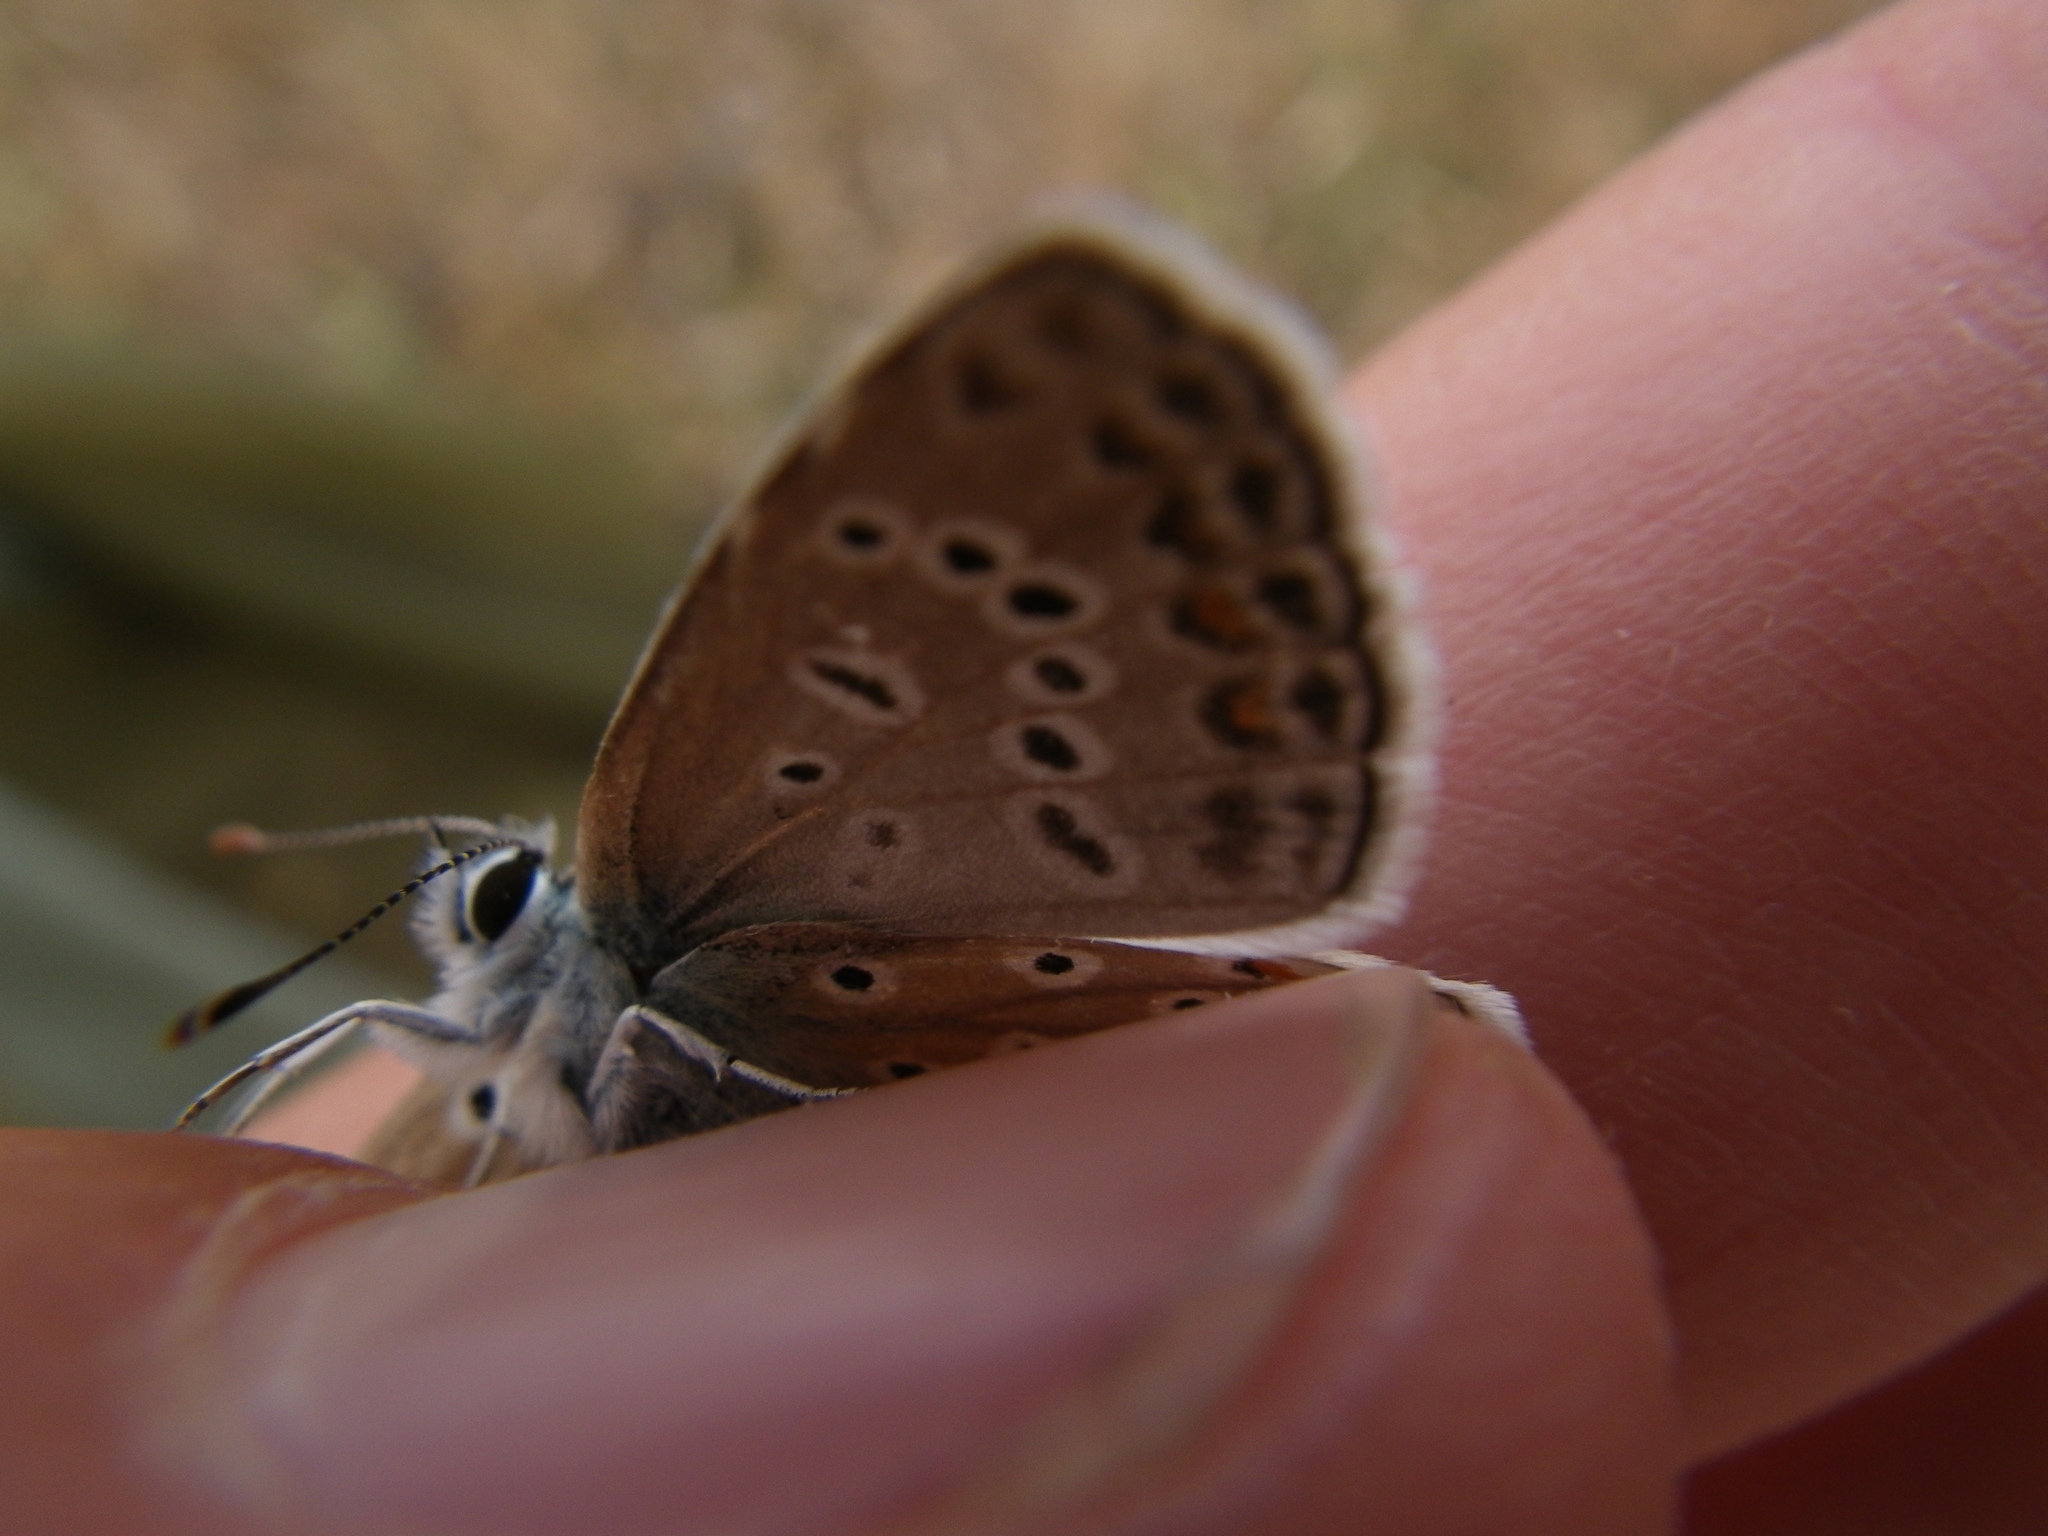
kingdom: Animalia
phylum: Arthropoda
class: Insecta
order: Lepidoptera
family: Lycaenidae
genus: Polyommatus
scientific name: Polyommatus icarus
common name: Common blue
